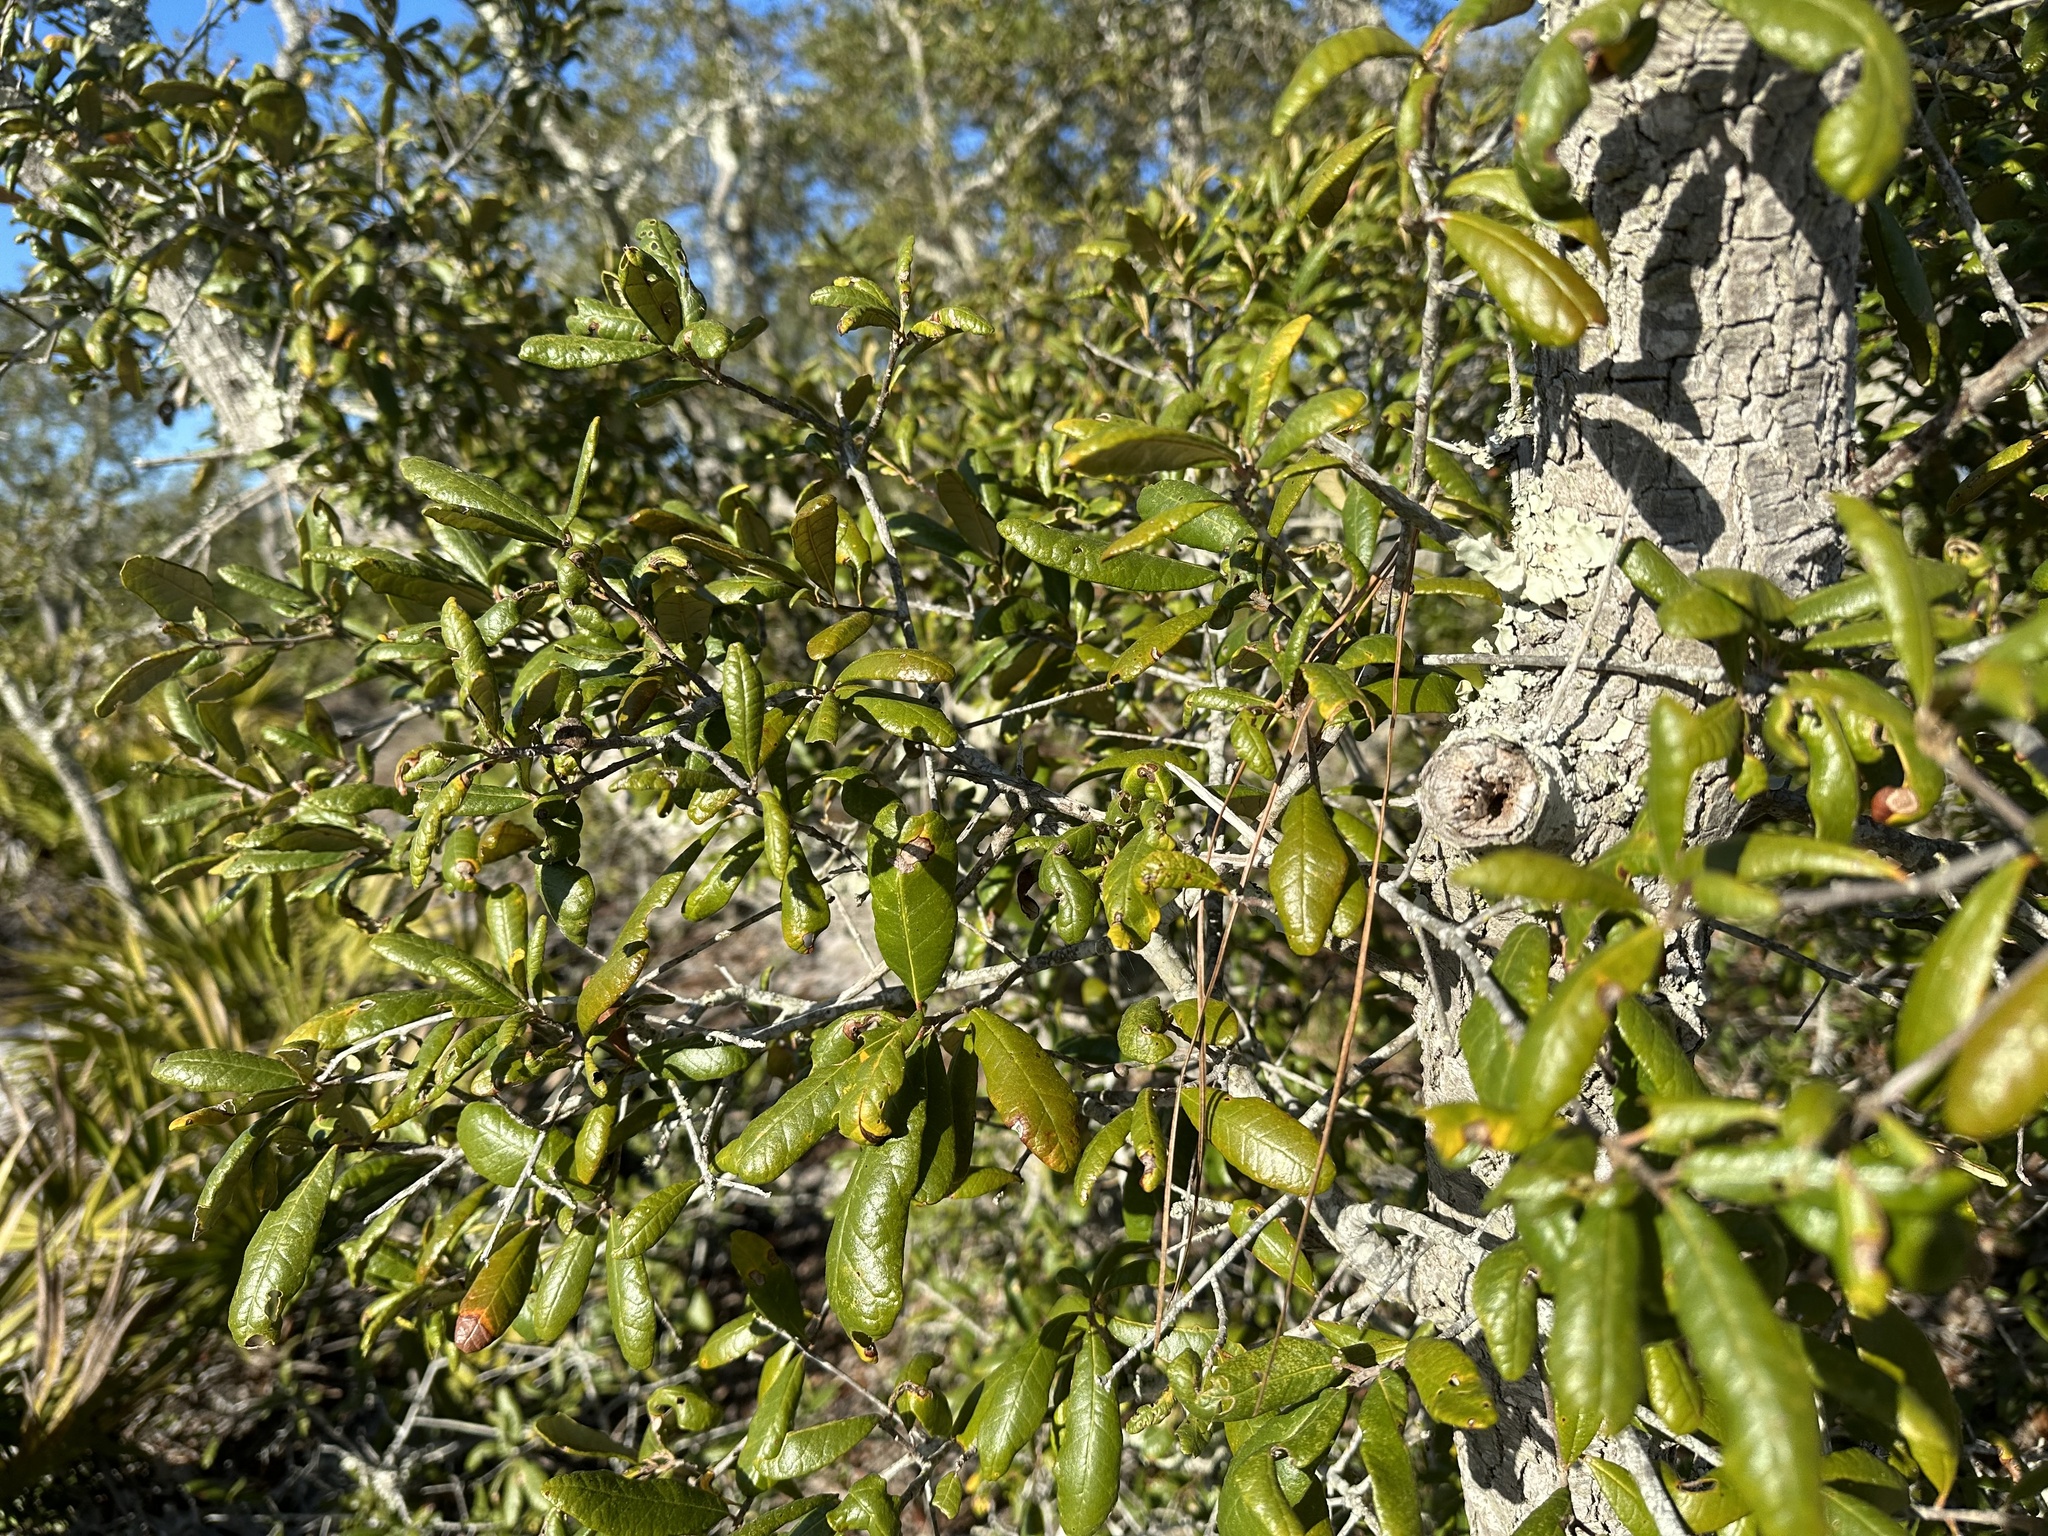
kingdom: Plantae
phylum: Tracheophyta
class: Magnoliopsida
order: Fagales
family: Fagaceae
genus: Quercus
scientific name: Quercus geminata
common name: Sand live oak
